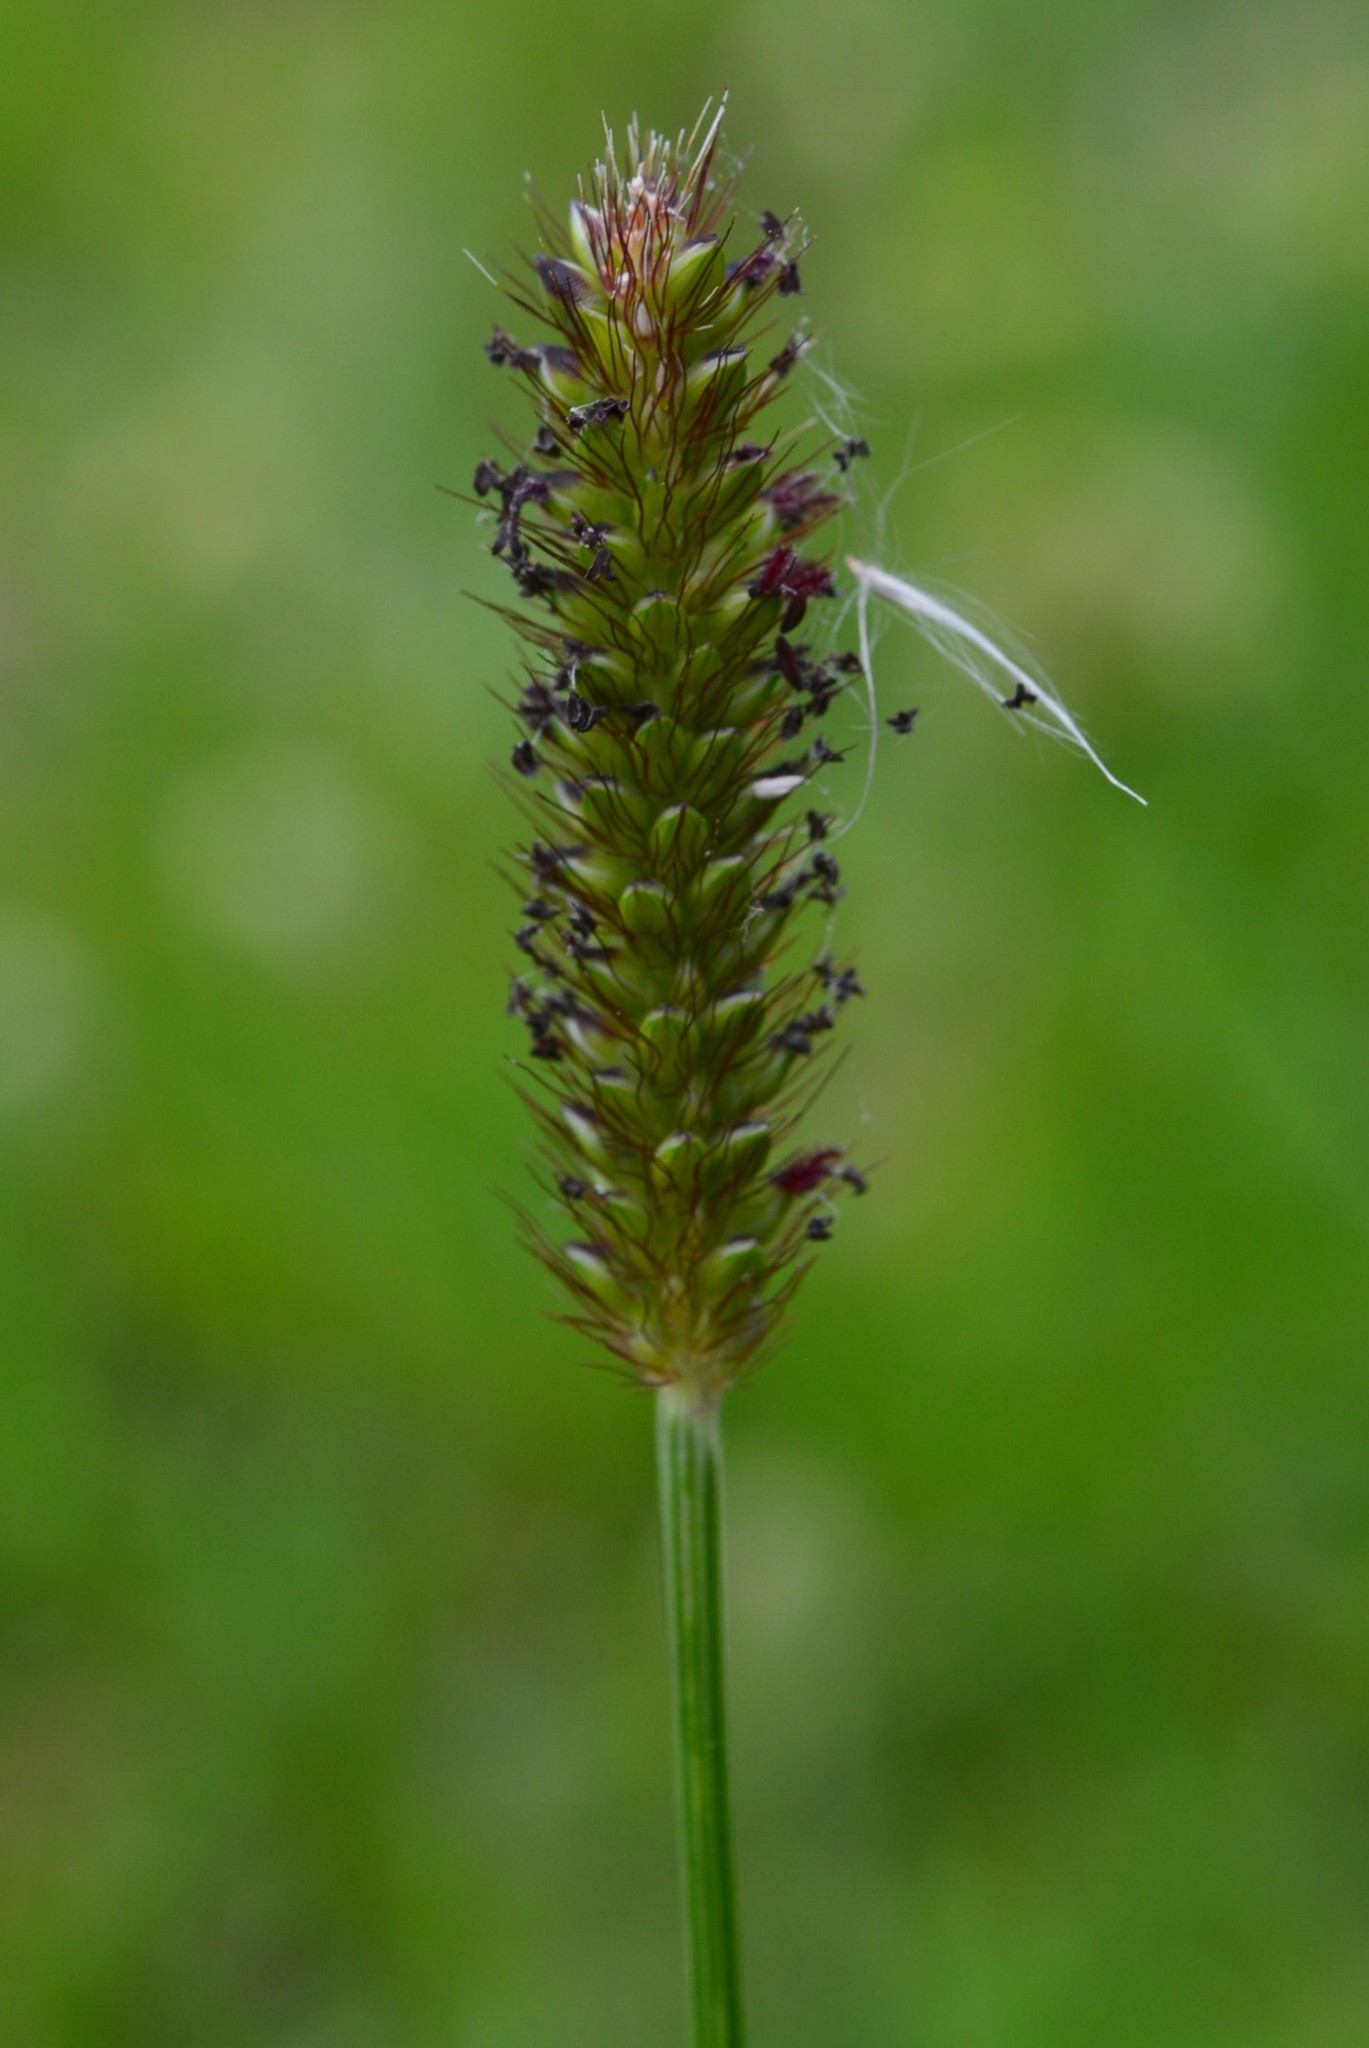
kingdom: Plantae
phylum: Tracheophyta
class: Liliopsida
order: Poales
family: Poaceae
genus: Setaria
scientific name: Setaria parviflora
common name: Knotroot bristle-grass
